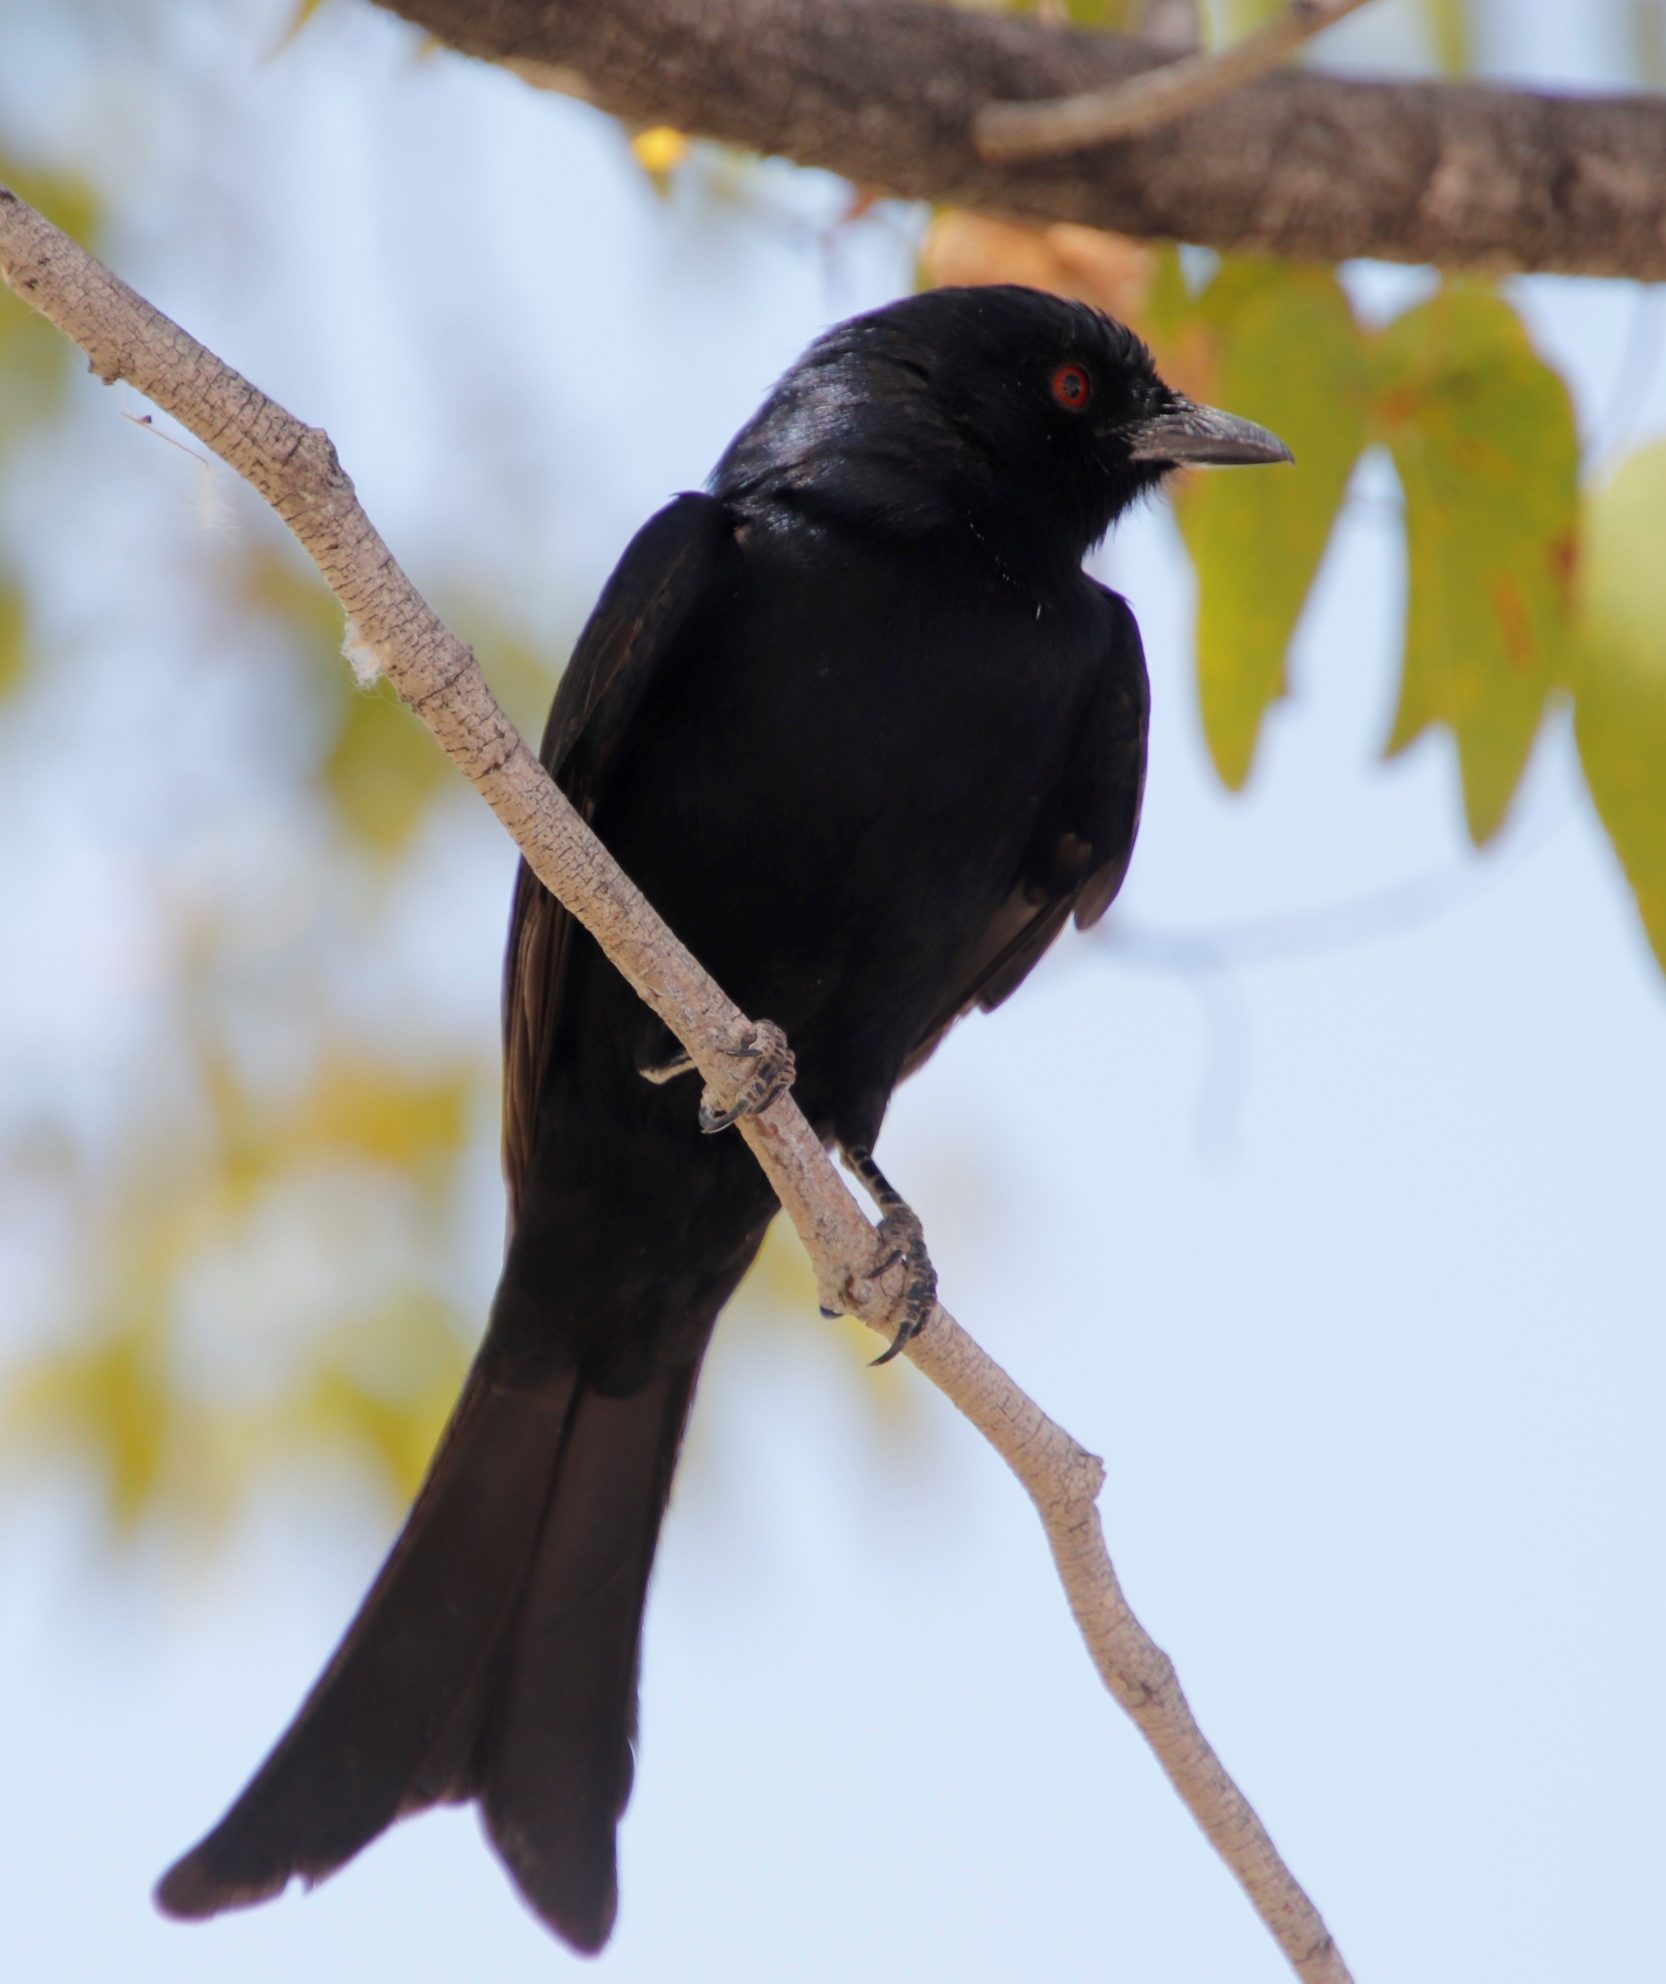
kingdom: Animalia
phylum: Chordata
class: Aves
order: Passeriformes
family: Dicruridae
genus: Dicrurus
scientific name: Dicrurus adsimilis
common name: Fork-tailed drongo
